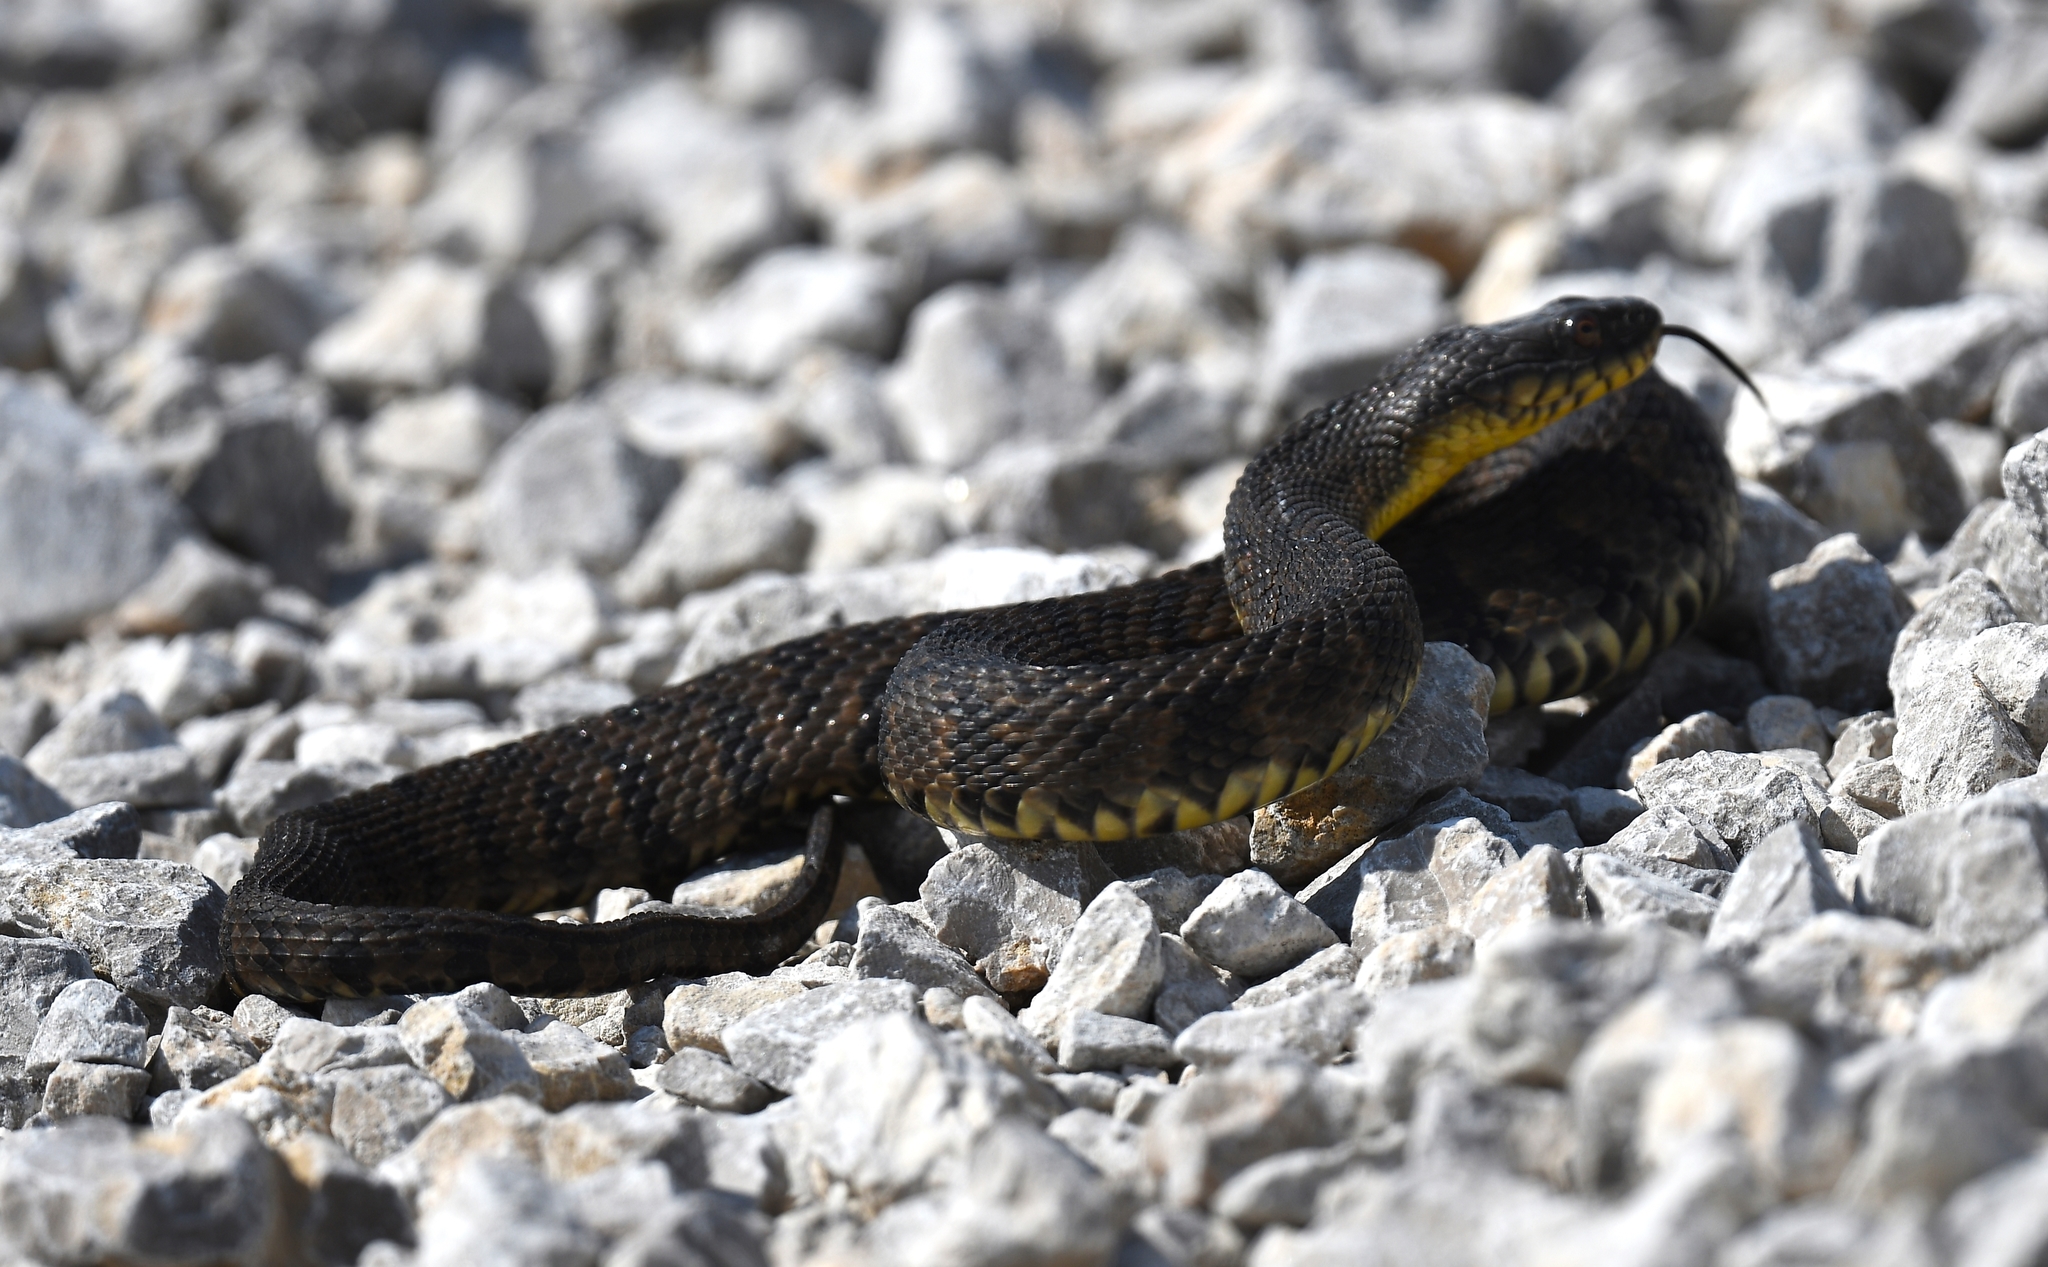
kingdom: Animalia
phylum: Chordata
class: Squamata
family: Colubridae
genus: Nerodia
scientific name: Nerodia rhombifer
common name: Diamondback water snake
